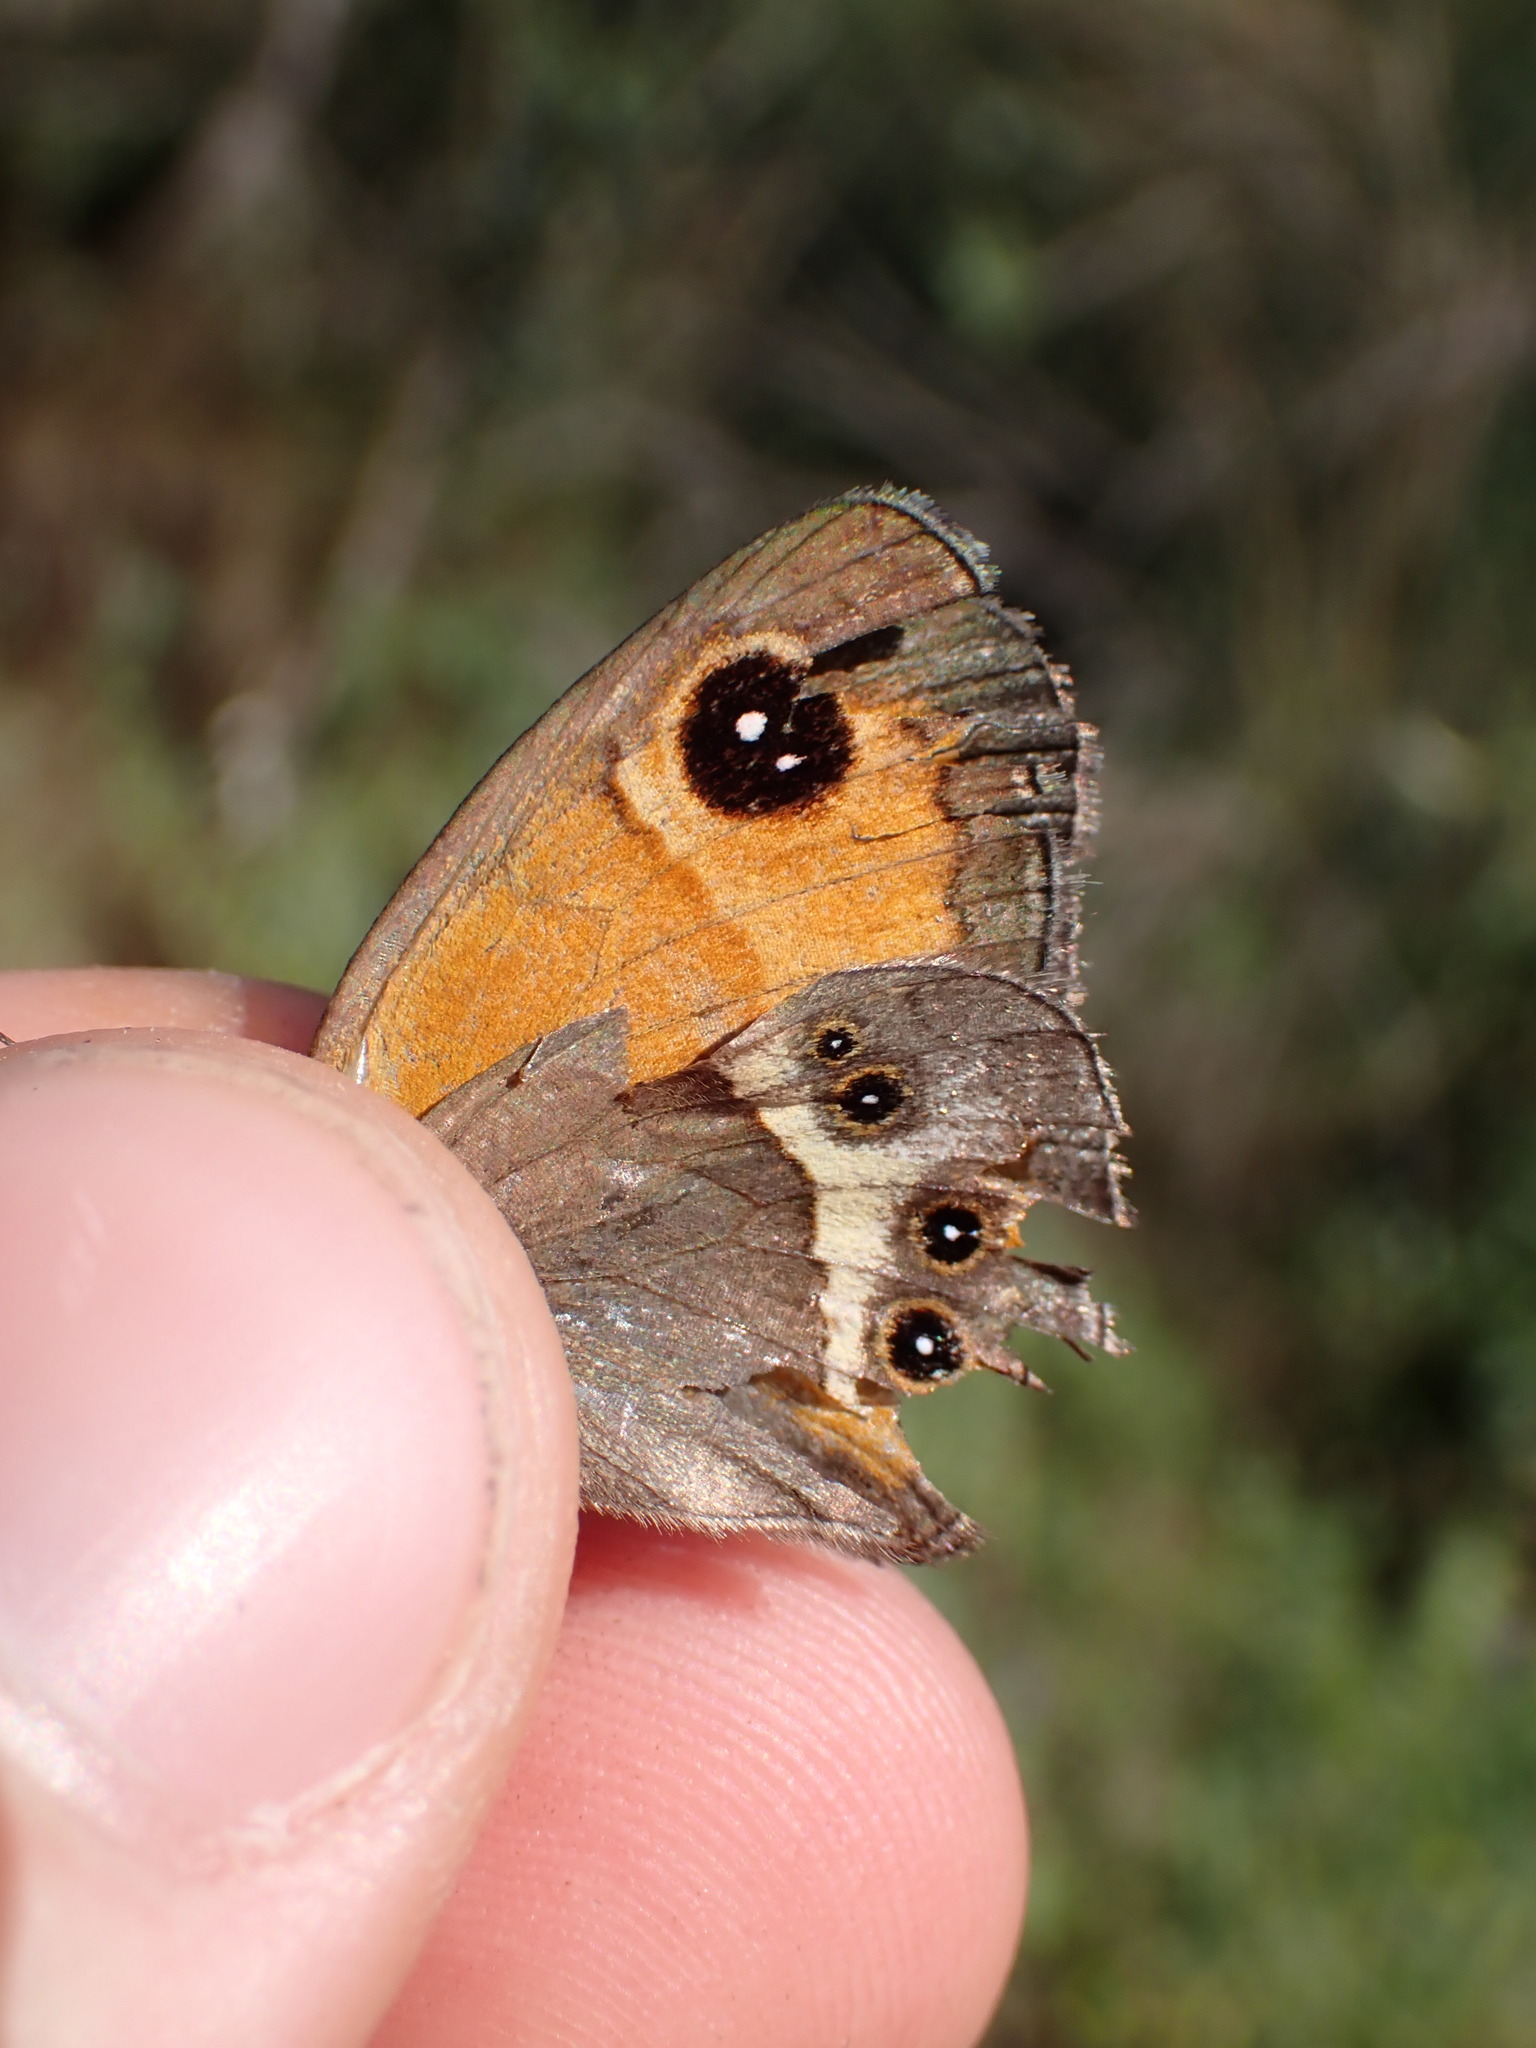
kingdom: Animalia
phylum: Arthropoda
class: Insecta
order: Lepidoptera
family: Nymphalidae
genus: Pyronia
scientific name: Pyronia bathseba
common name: Spanish gatekeeper
